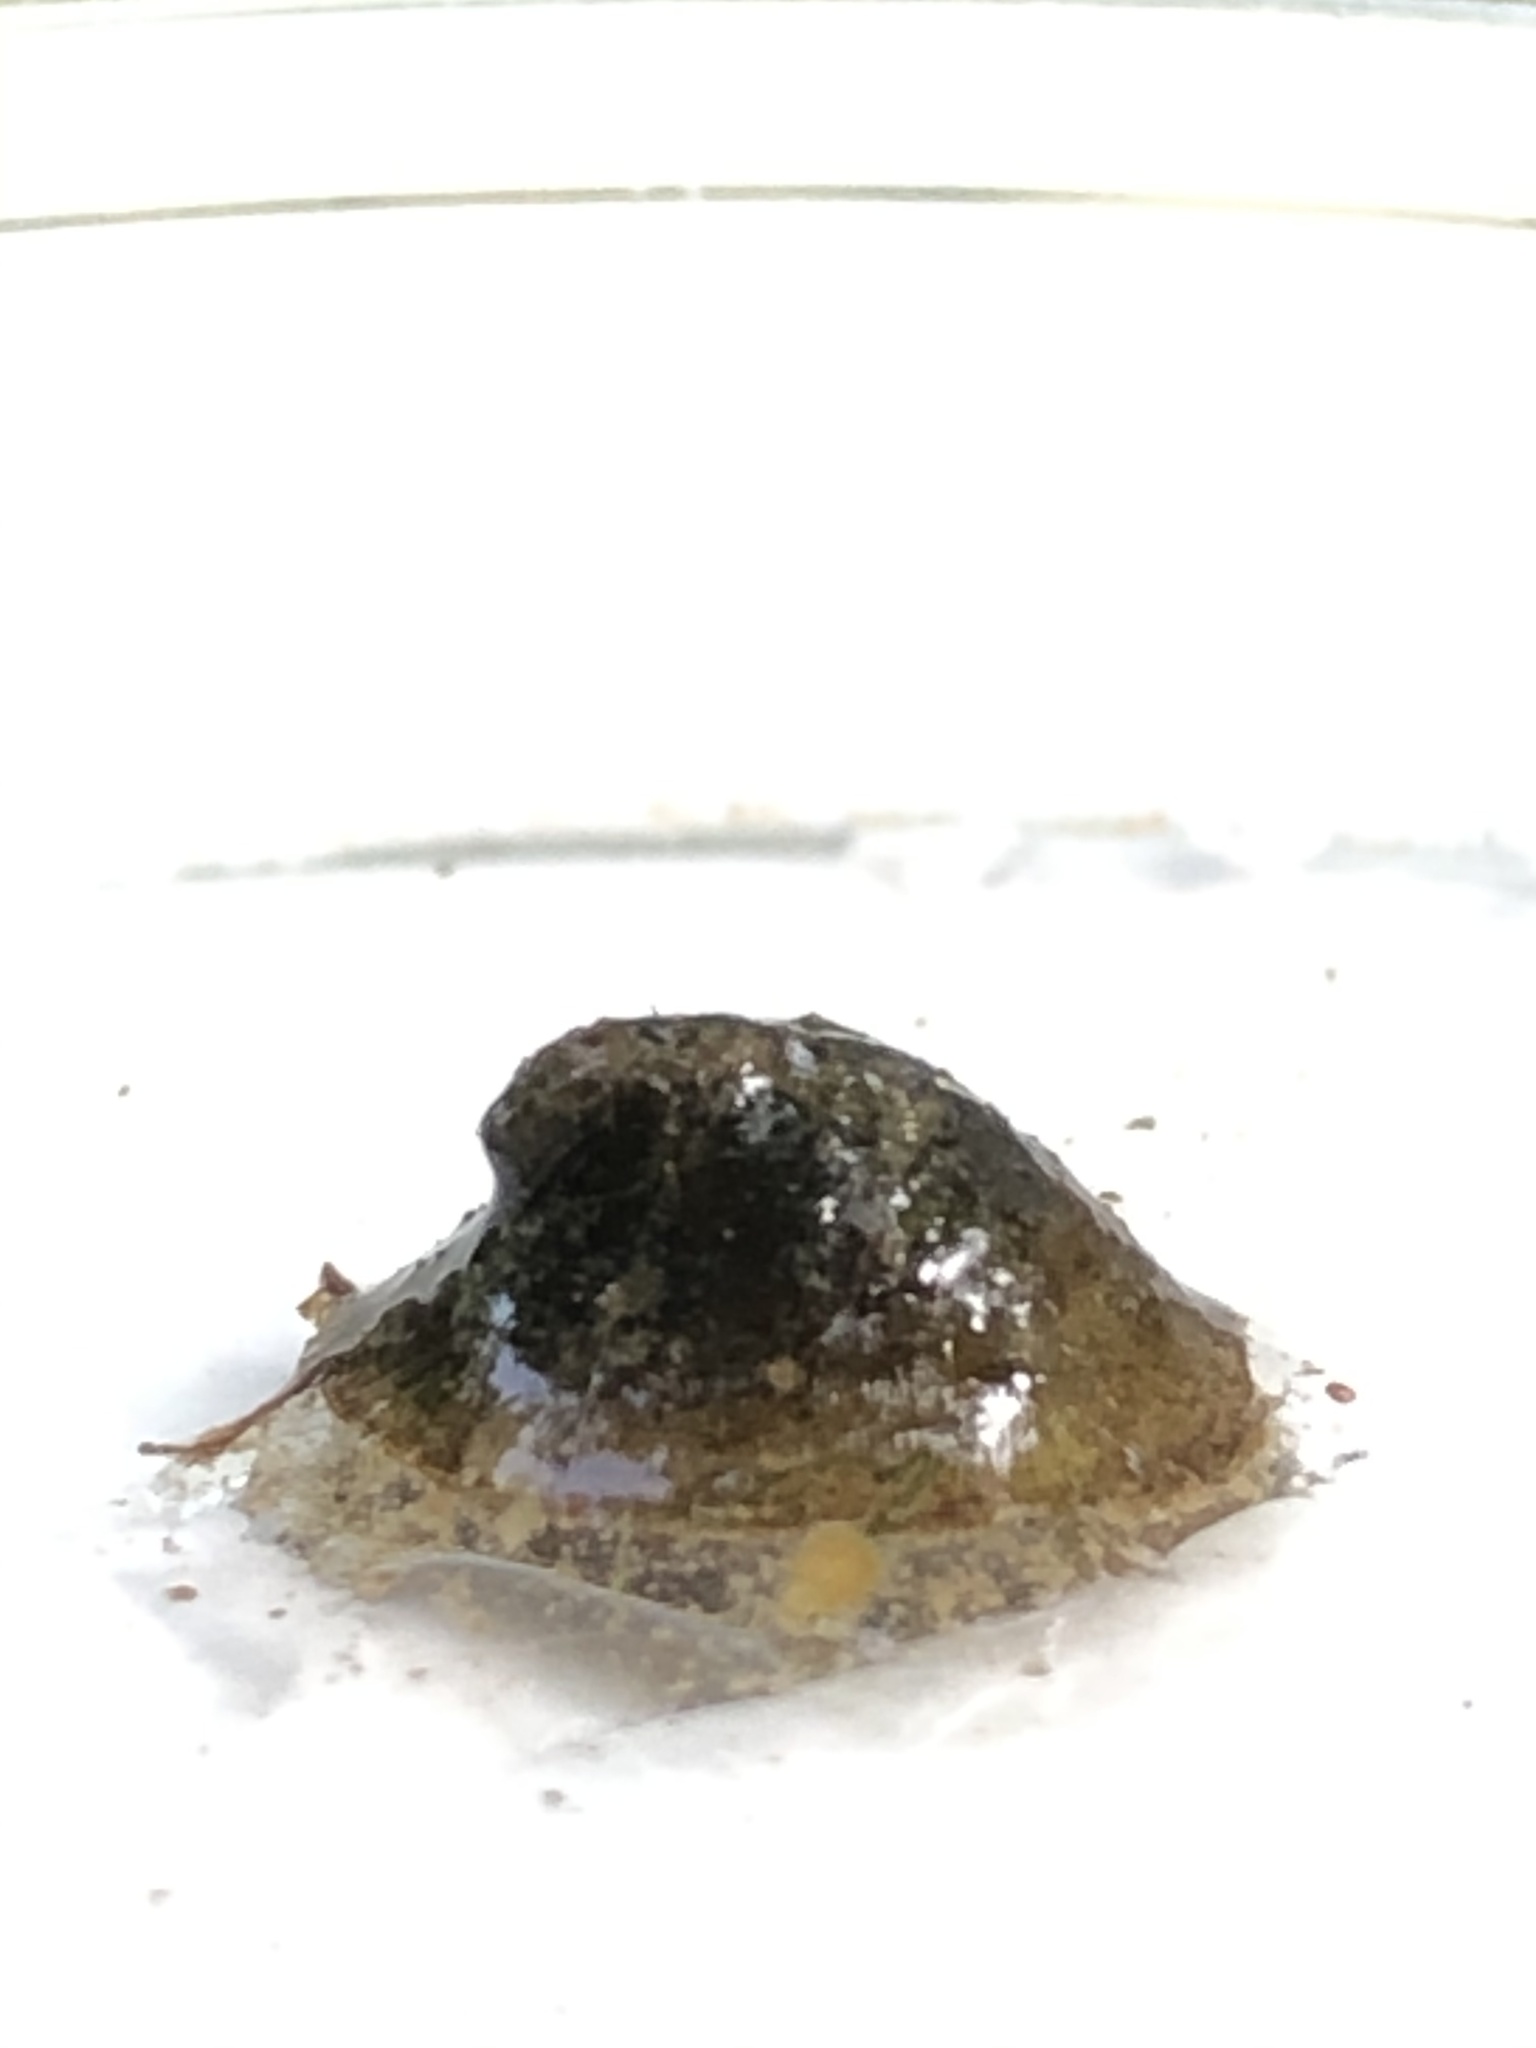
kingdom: Animalia
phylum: Mollusca
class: Gastropoda
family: Planorbidae
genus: Ancylus
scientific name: Ancylus fluviatilis
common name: River limpet
